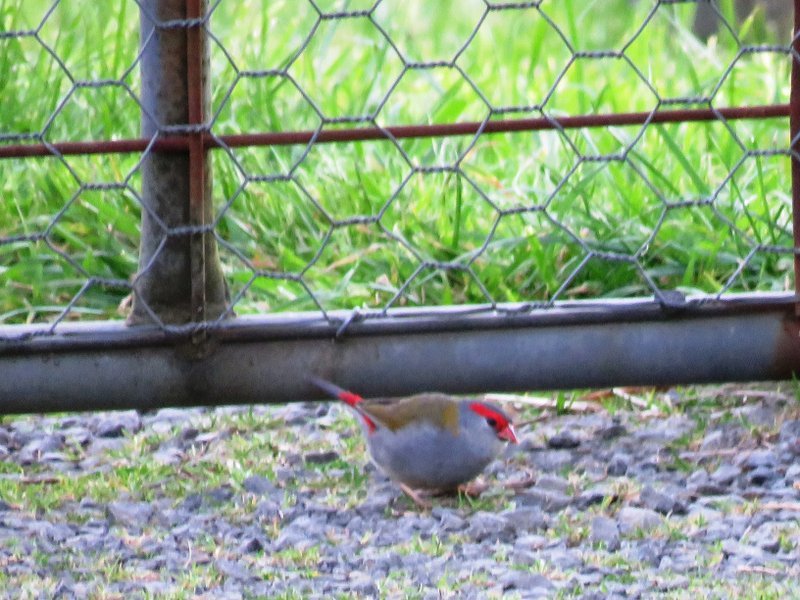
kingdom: Animalia
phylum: Chordata
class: Aves
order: Passeriformes
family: Estrildidae
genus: Neochmia
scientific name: Neochmia temporalis
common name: Red-browed finch
